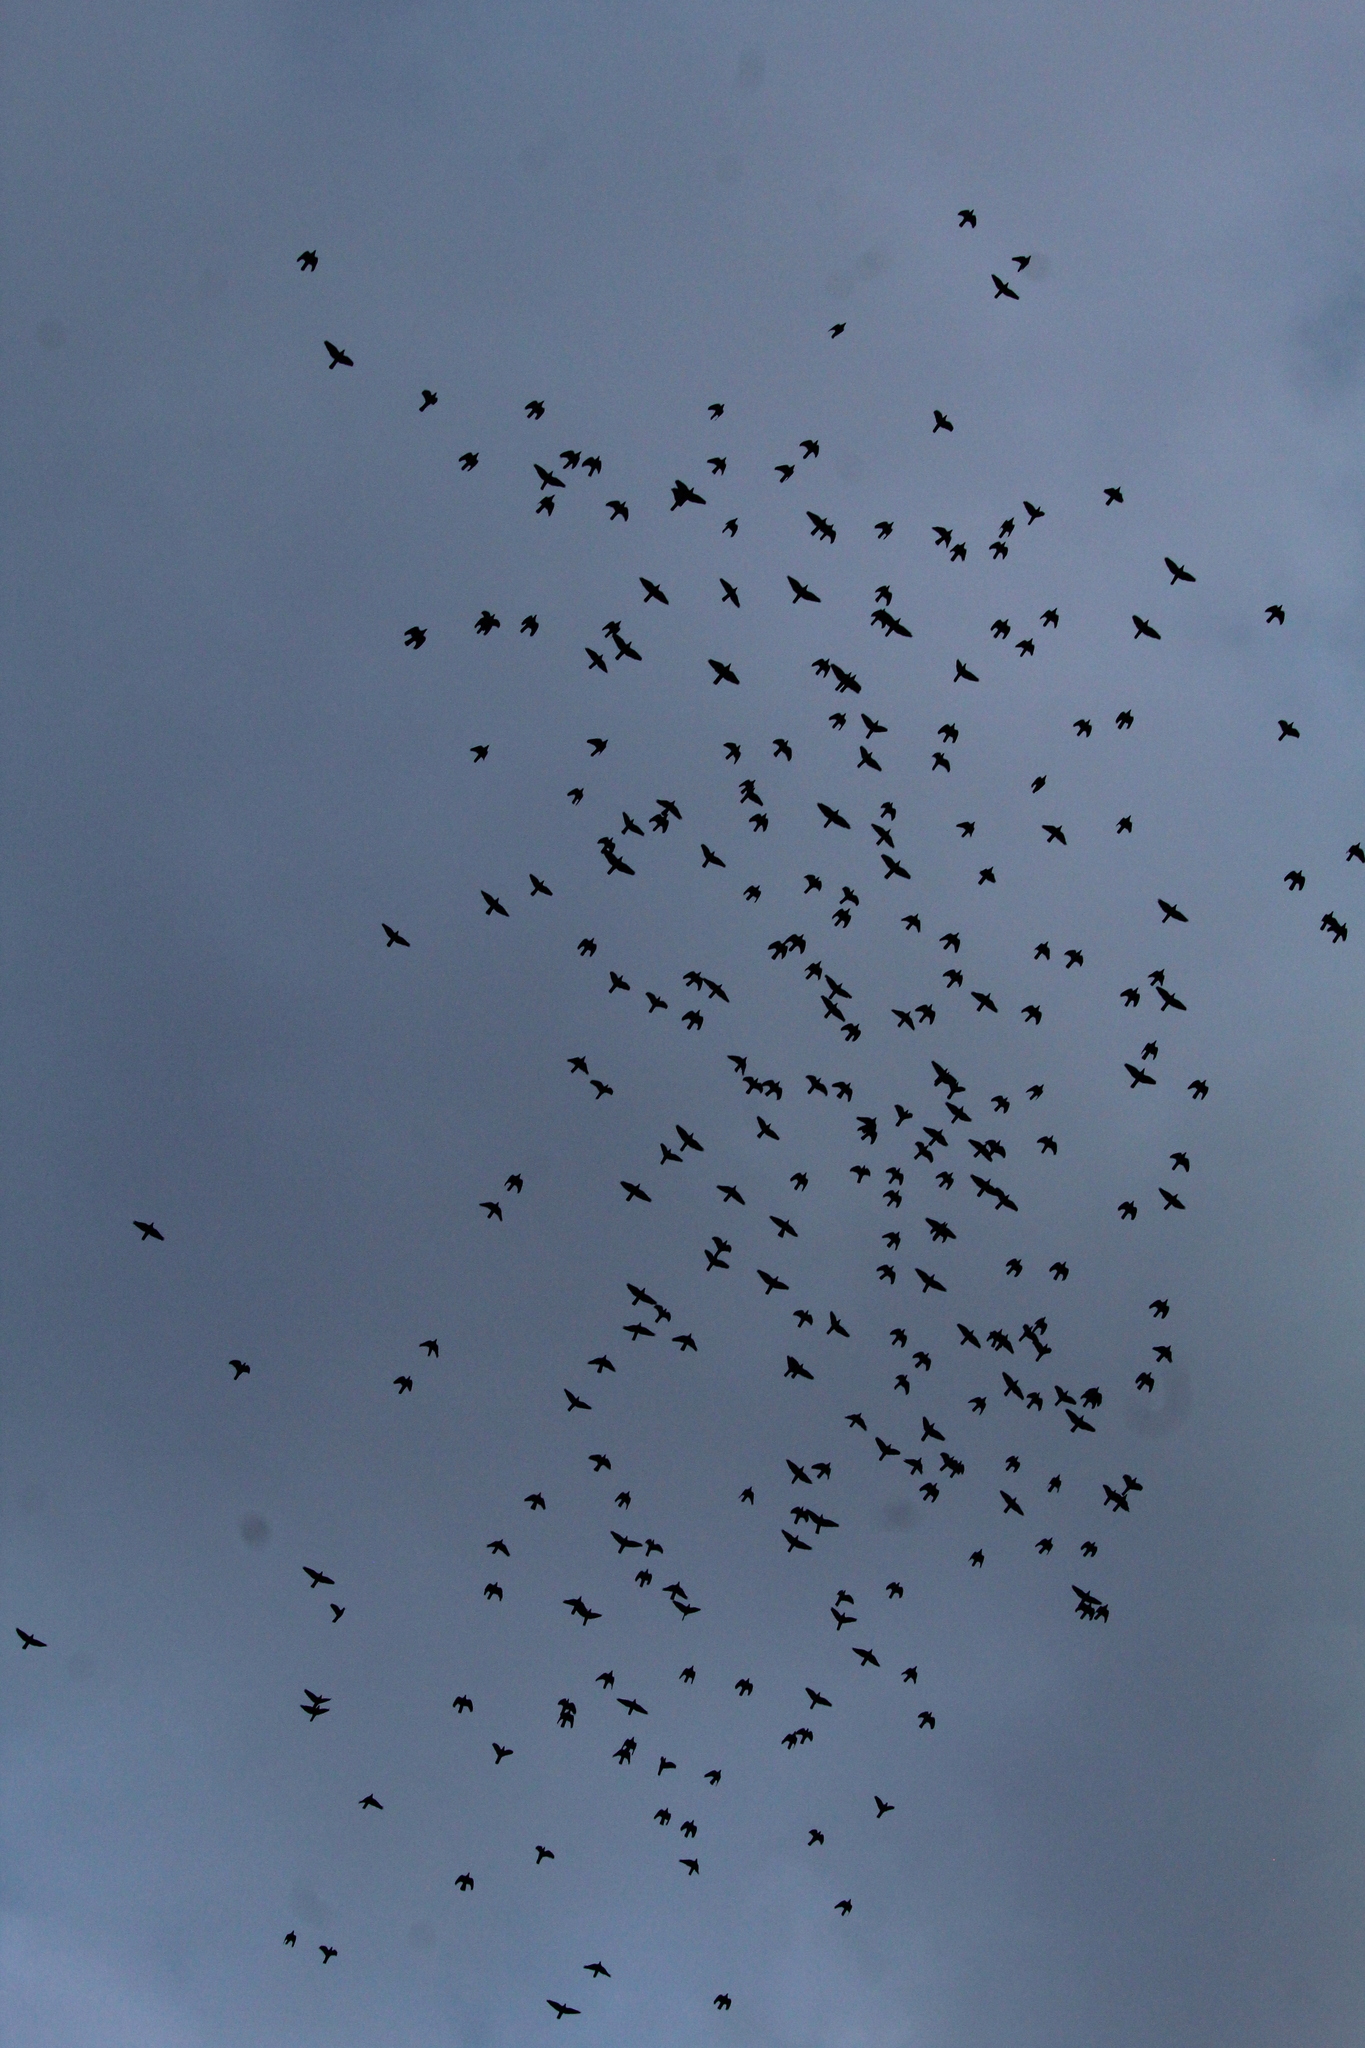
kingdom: Animalia
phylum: Chordata
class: Aves
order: Columbiformes
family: Columbidae
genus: Columba
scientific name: Columba palumbus
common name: Common wood pigeon
